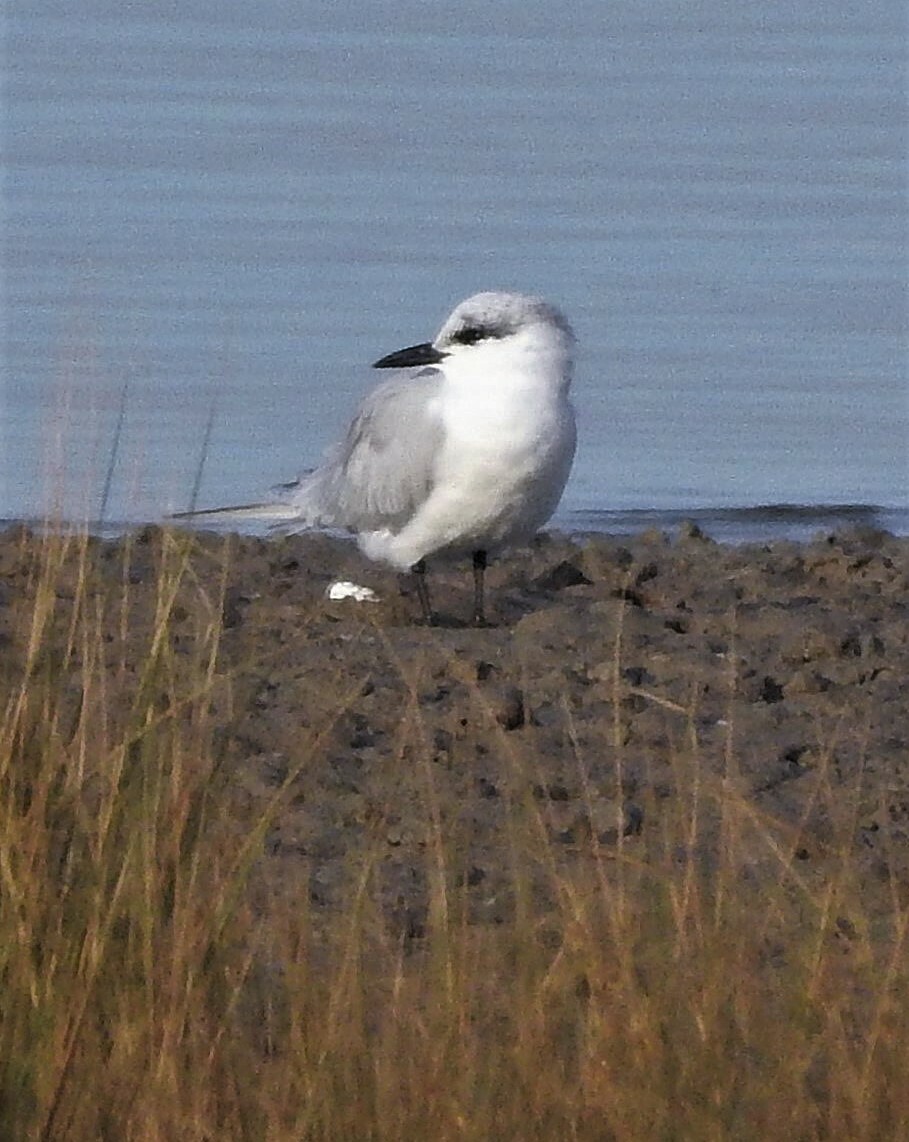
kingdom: Animalia
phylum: Chordata
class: Aves
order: Charadriiformes
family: Laridae
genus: Gelochelidon
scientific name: Gelochelidon nilotica
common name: Gull-billed tern
